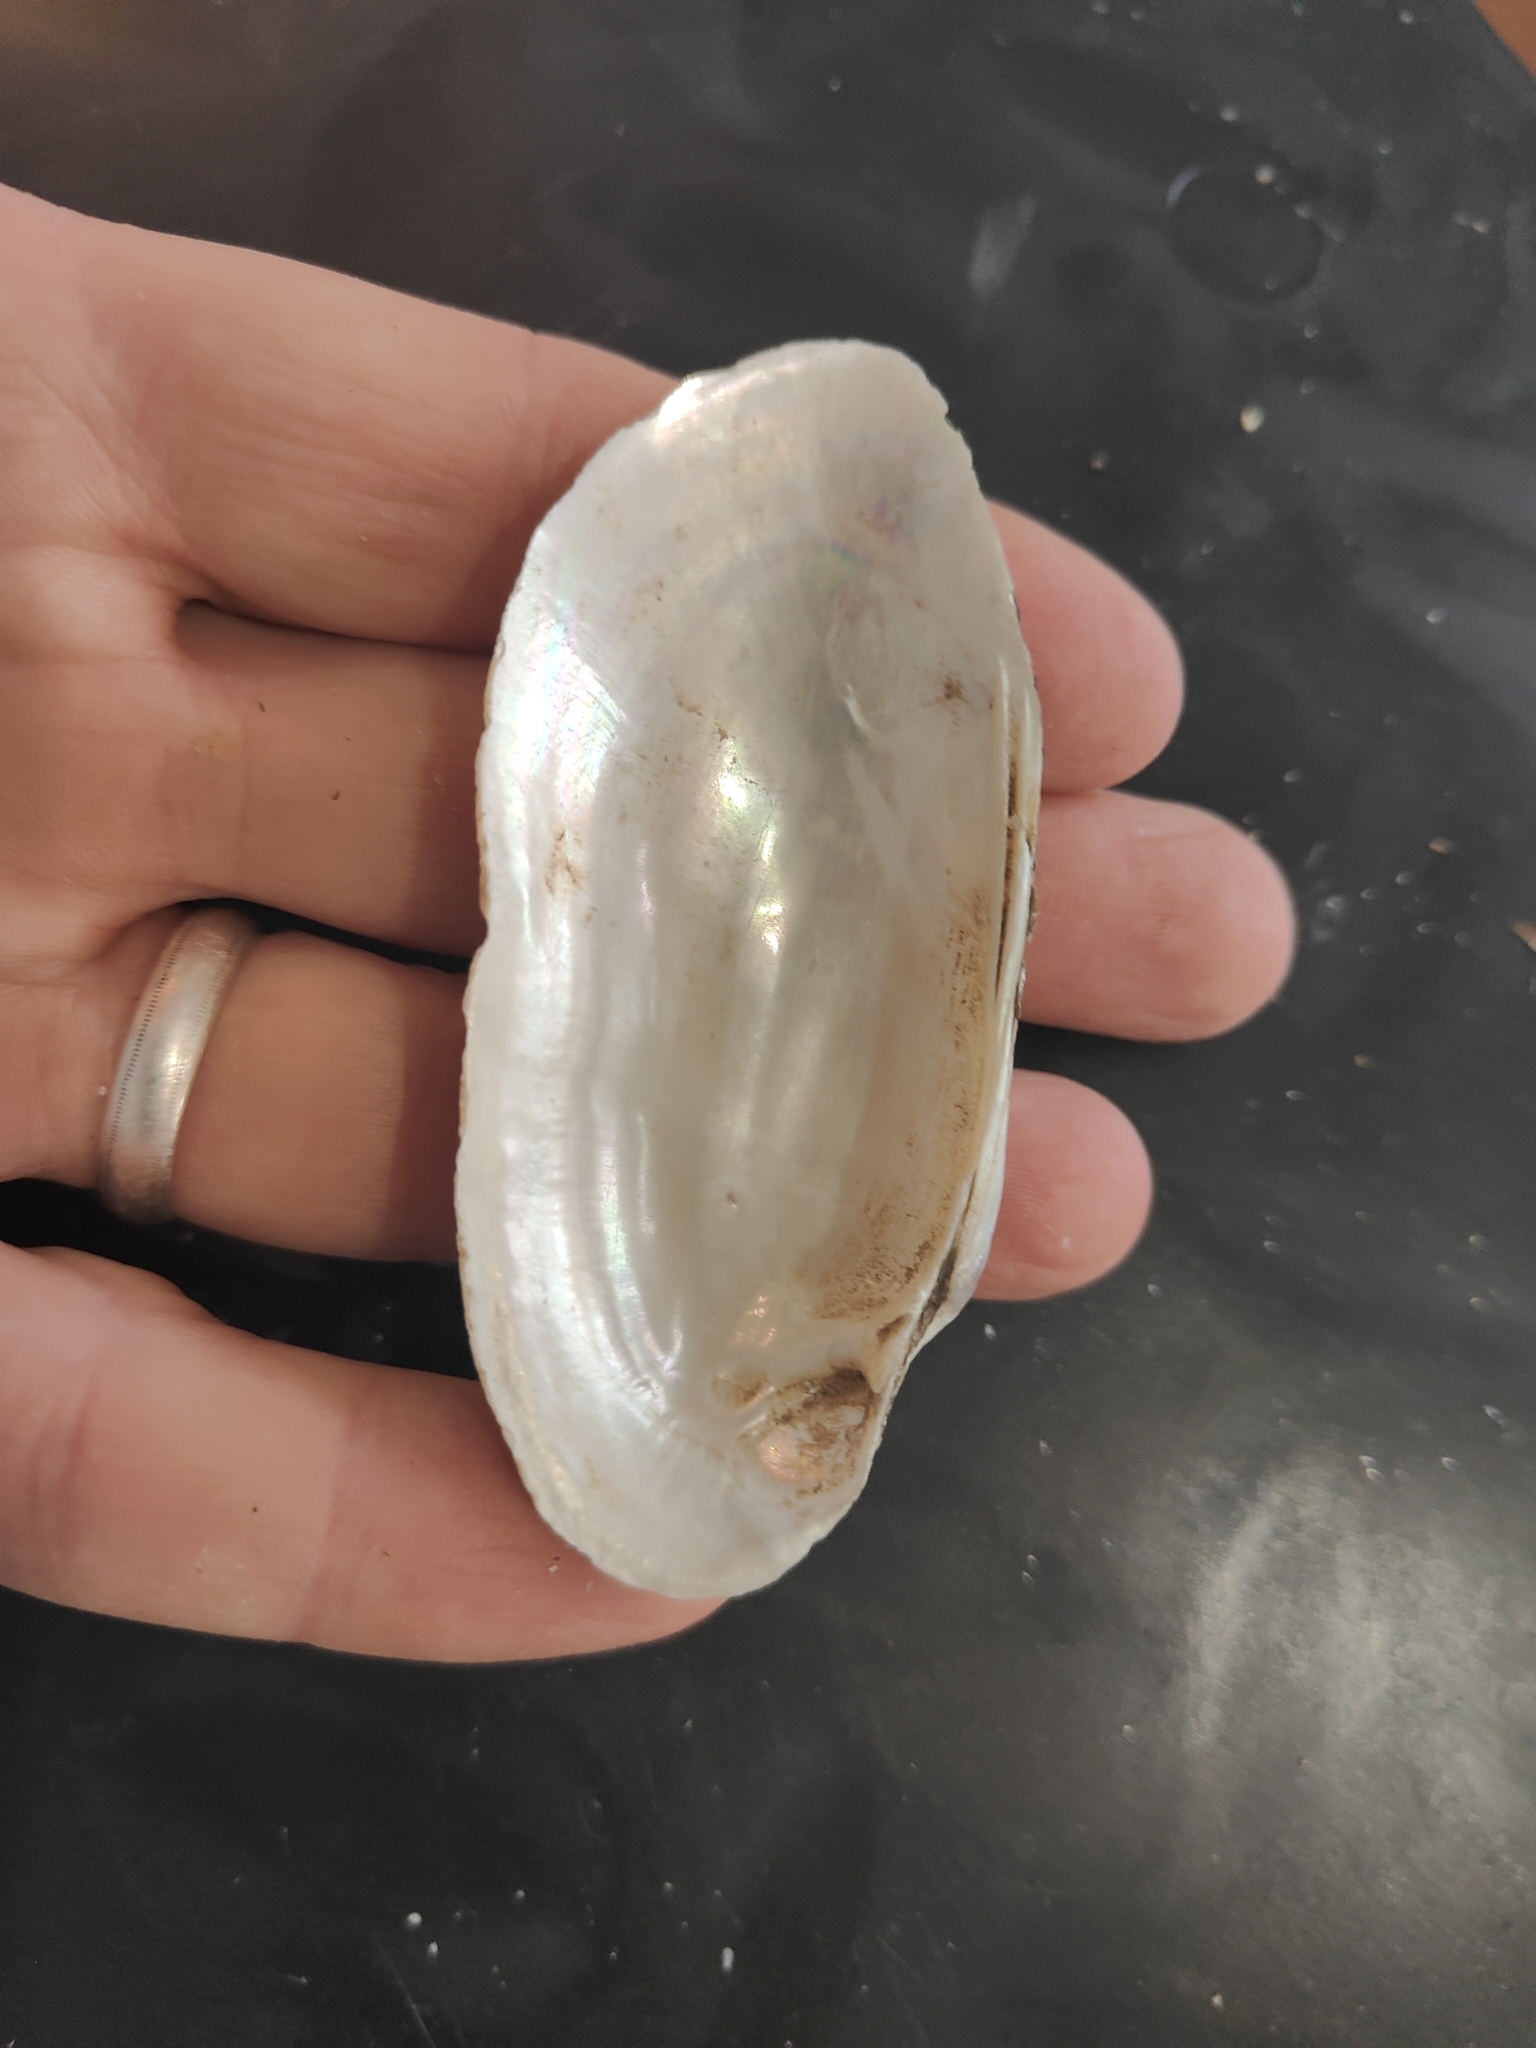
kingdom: Animalia
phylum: Mollusca
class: Bivalvia
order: Unionida
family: Unionidae
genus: Lampsilis
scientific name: Lampsilis teres
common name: Yellow sandshell
